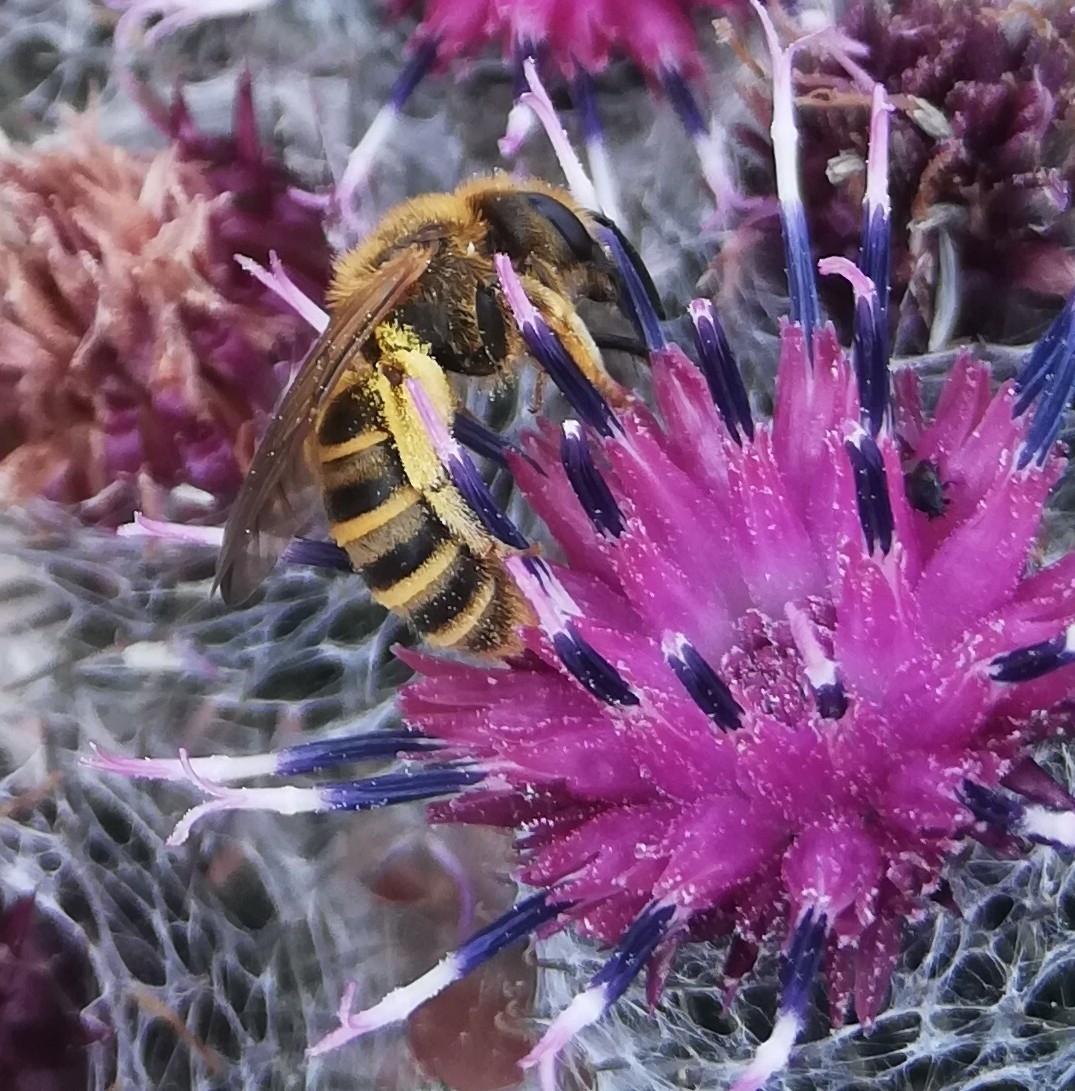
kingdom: Animalia
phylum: Arthropoda
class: Insecta
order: Hymenoptera
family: Halictidae
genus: Halictus
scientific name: Halictus scabiosae
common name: Great banded furrow bee
